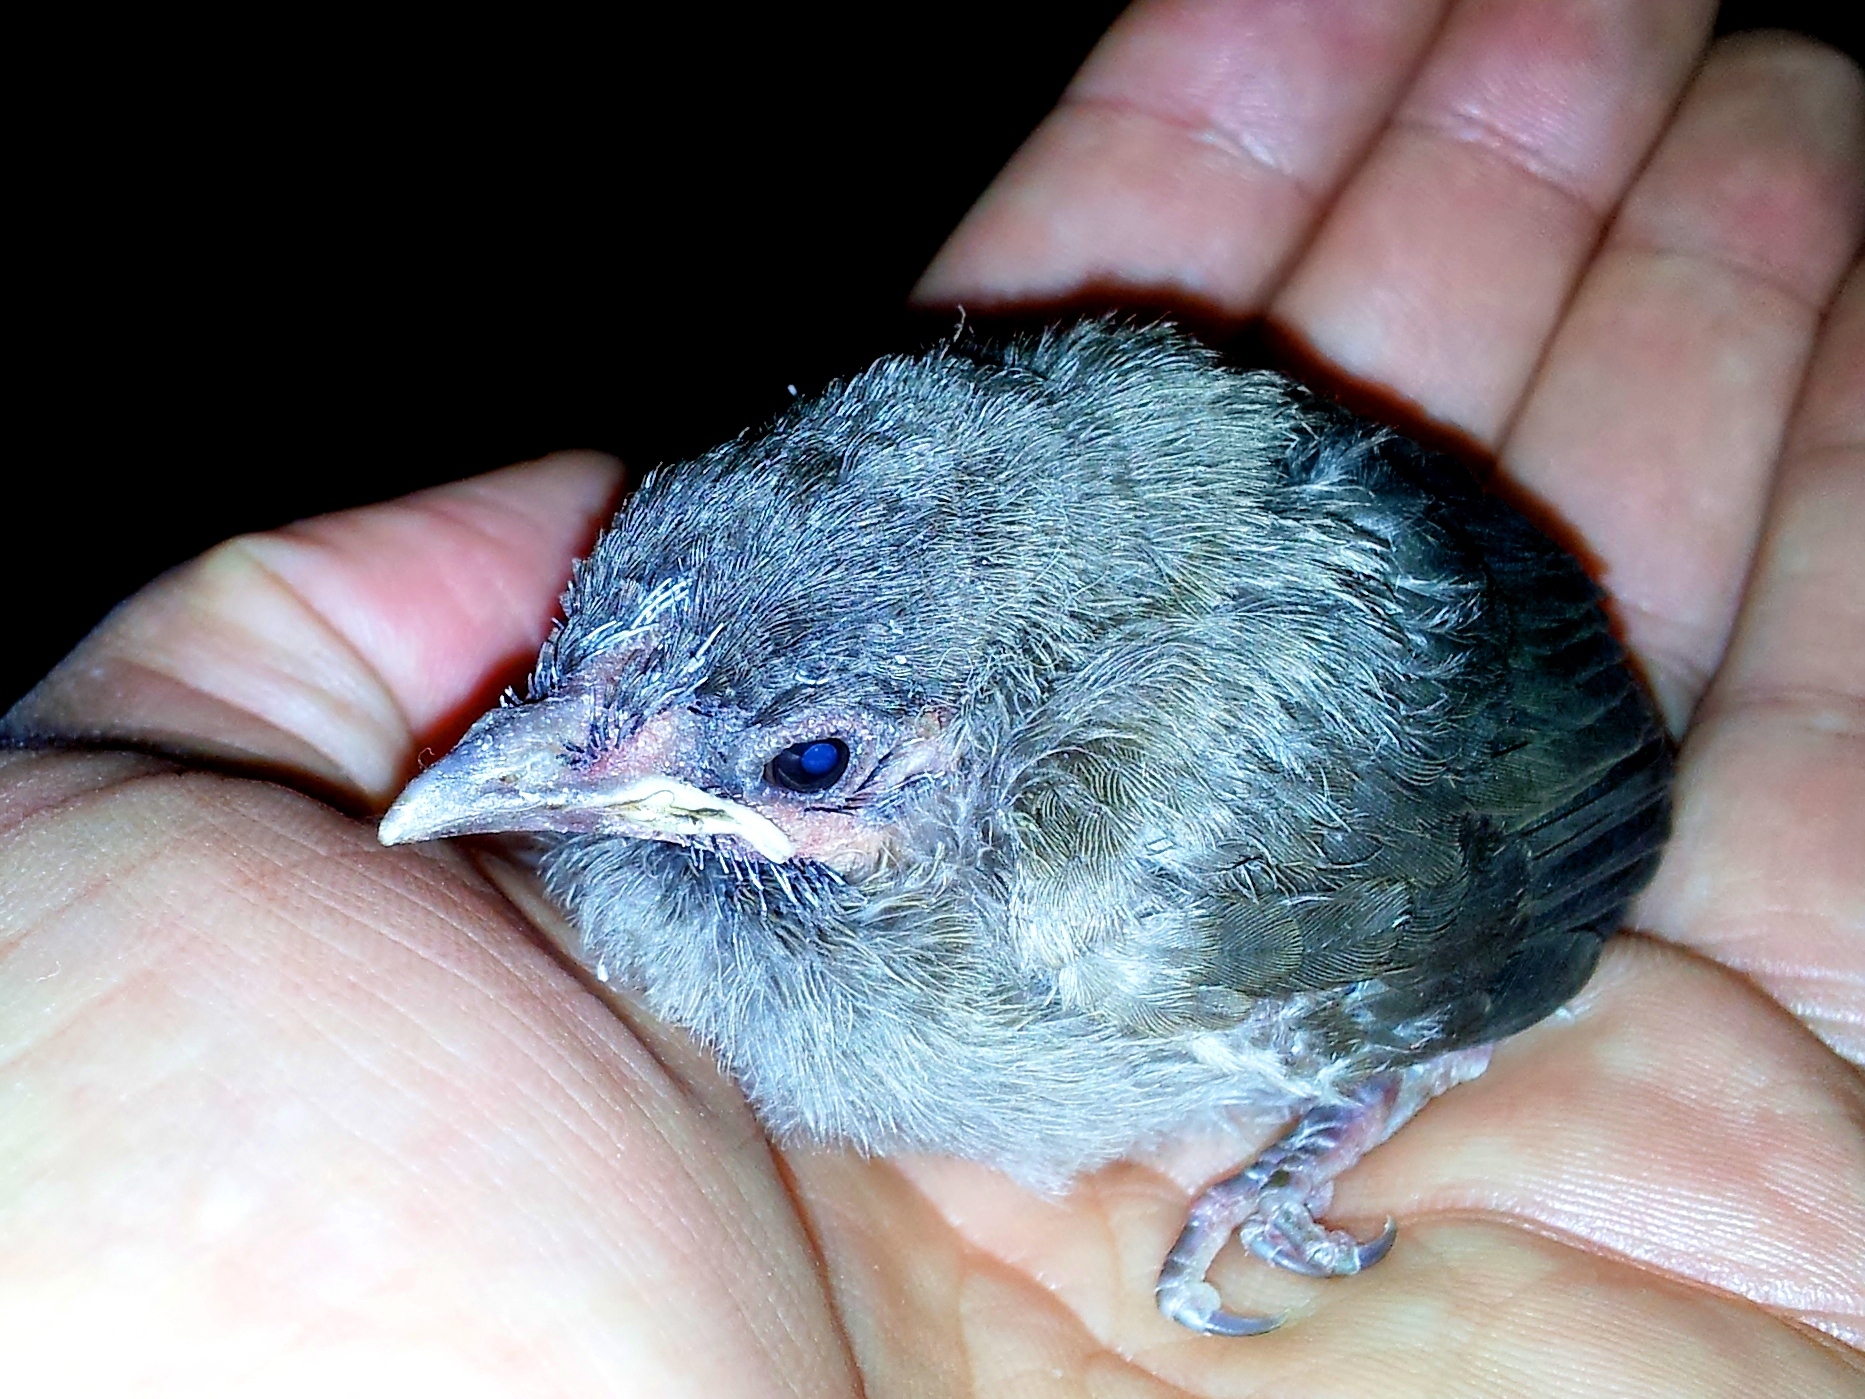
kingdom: Animalia
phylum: Chordata
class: Aves
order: Passeriformes
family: Pycnonotidae
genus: Pycnonotus
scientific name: Pycnonotus xanthopygos
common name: White-spectacled bulbul
